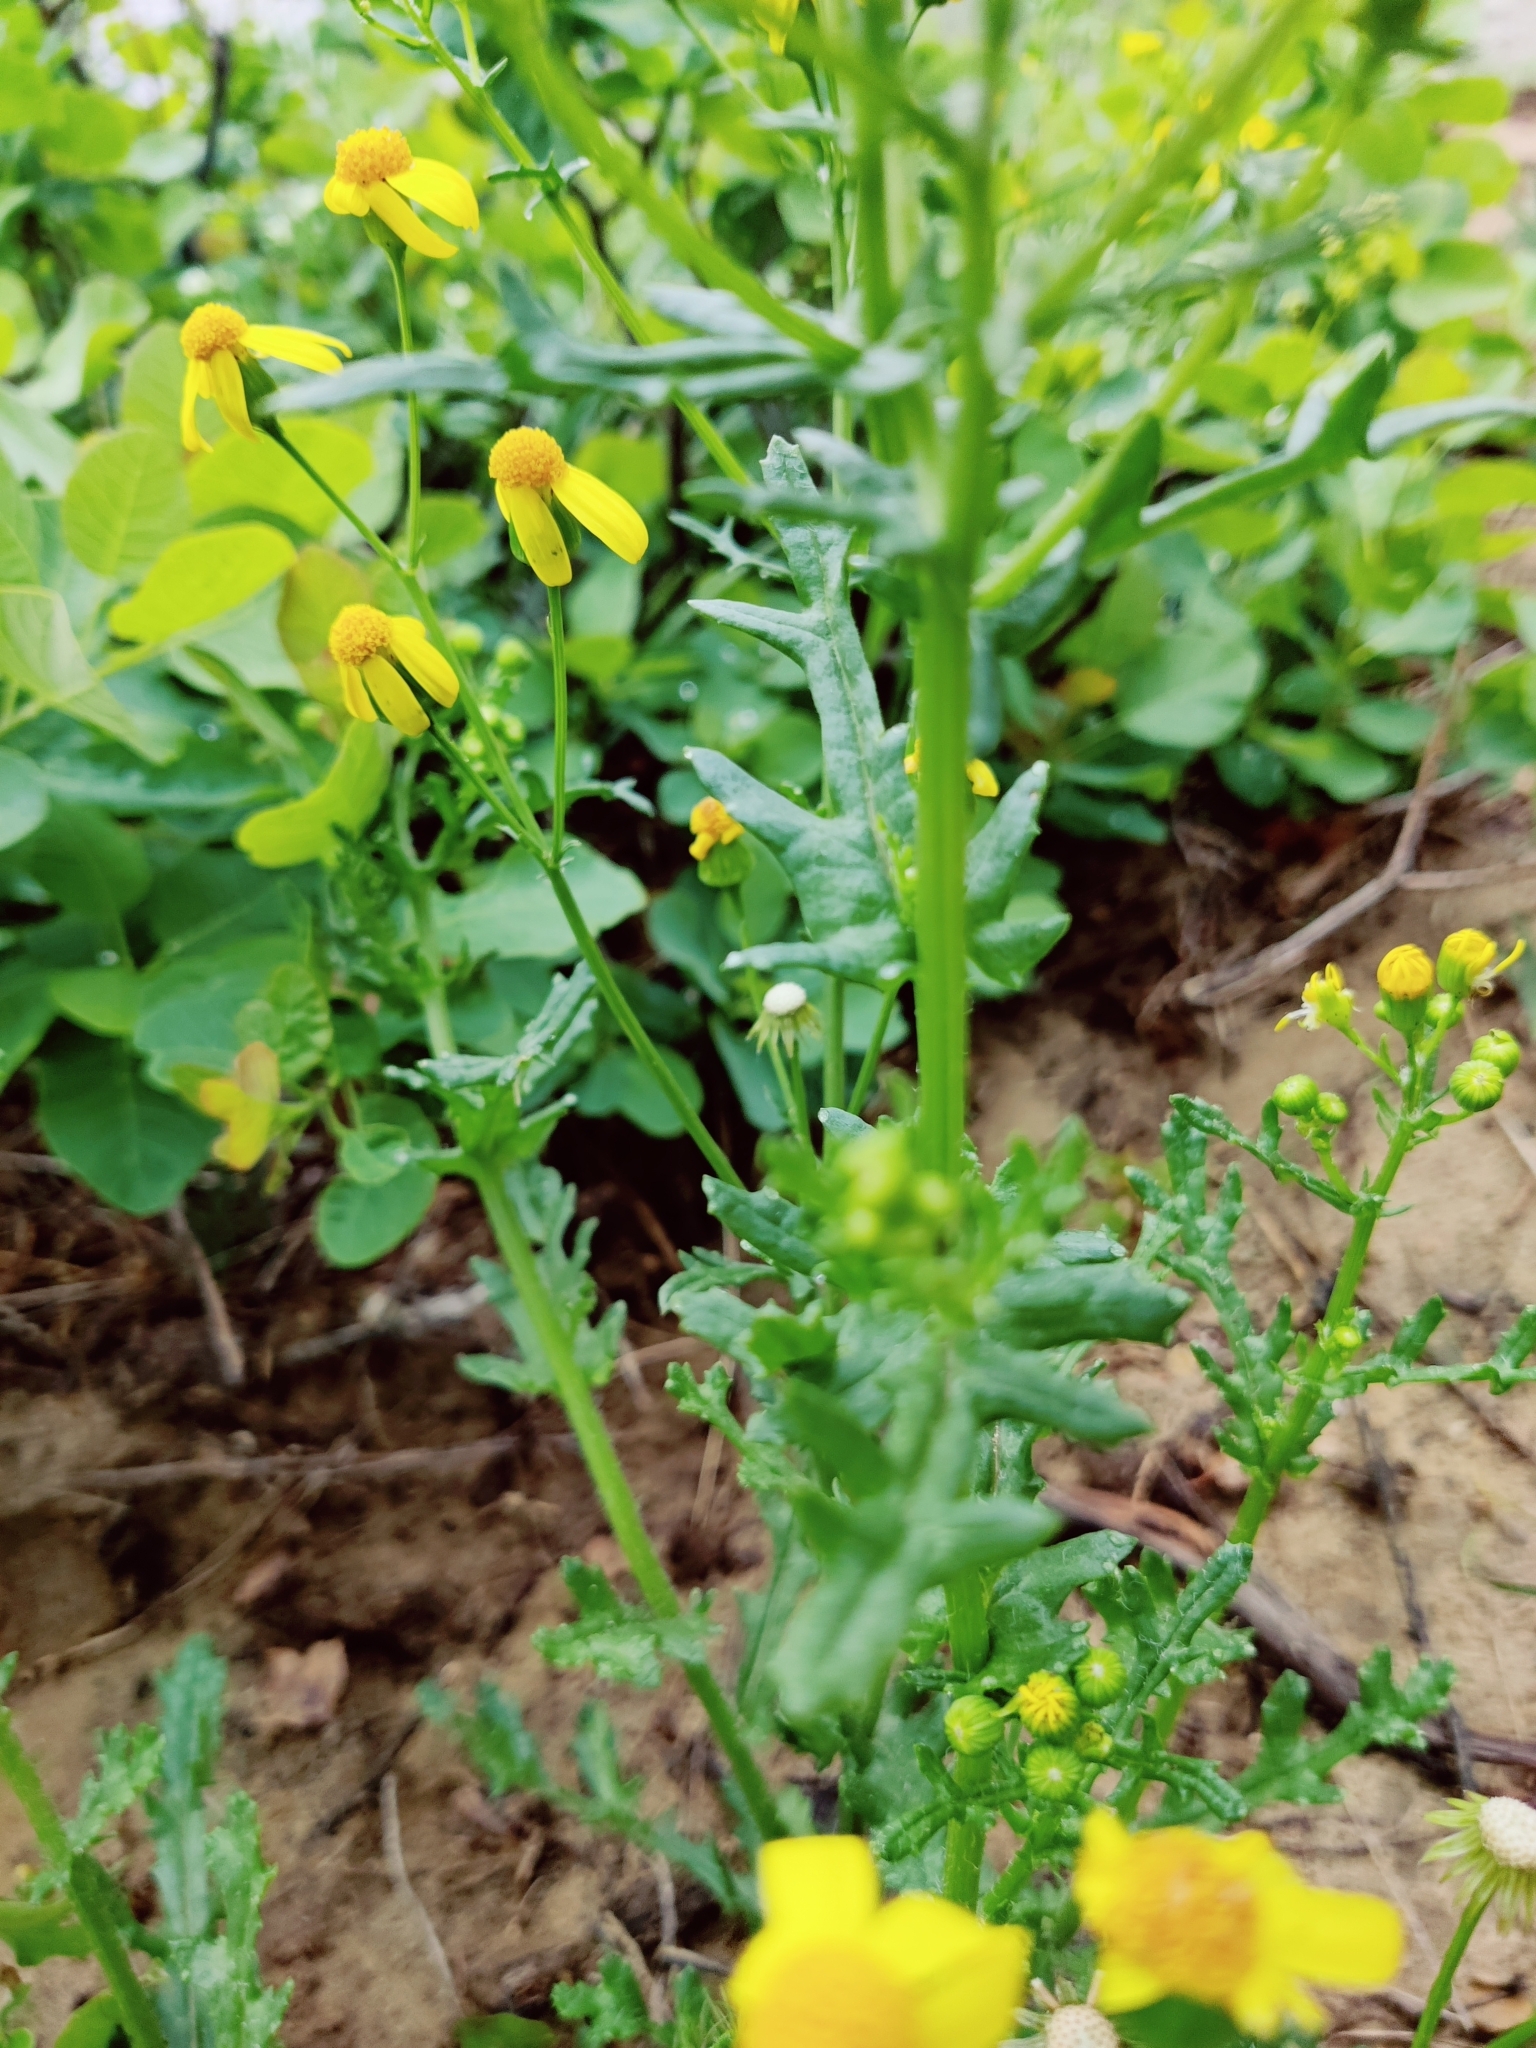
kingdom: Plantae
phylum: Tracheophyta
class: Magnoliopsida
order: Asterales
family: Asteraceae
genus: Senecio
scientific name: Senecio vernalis
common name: Eastern groundsel
